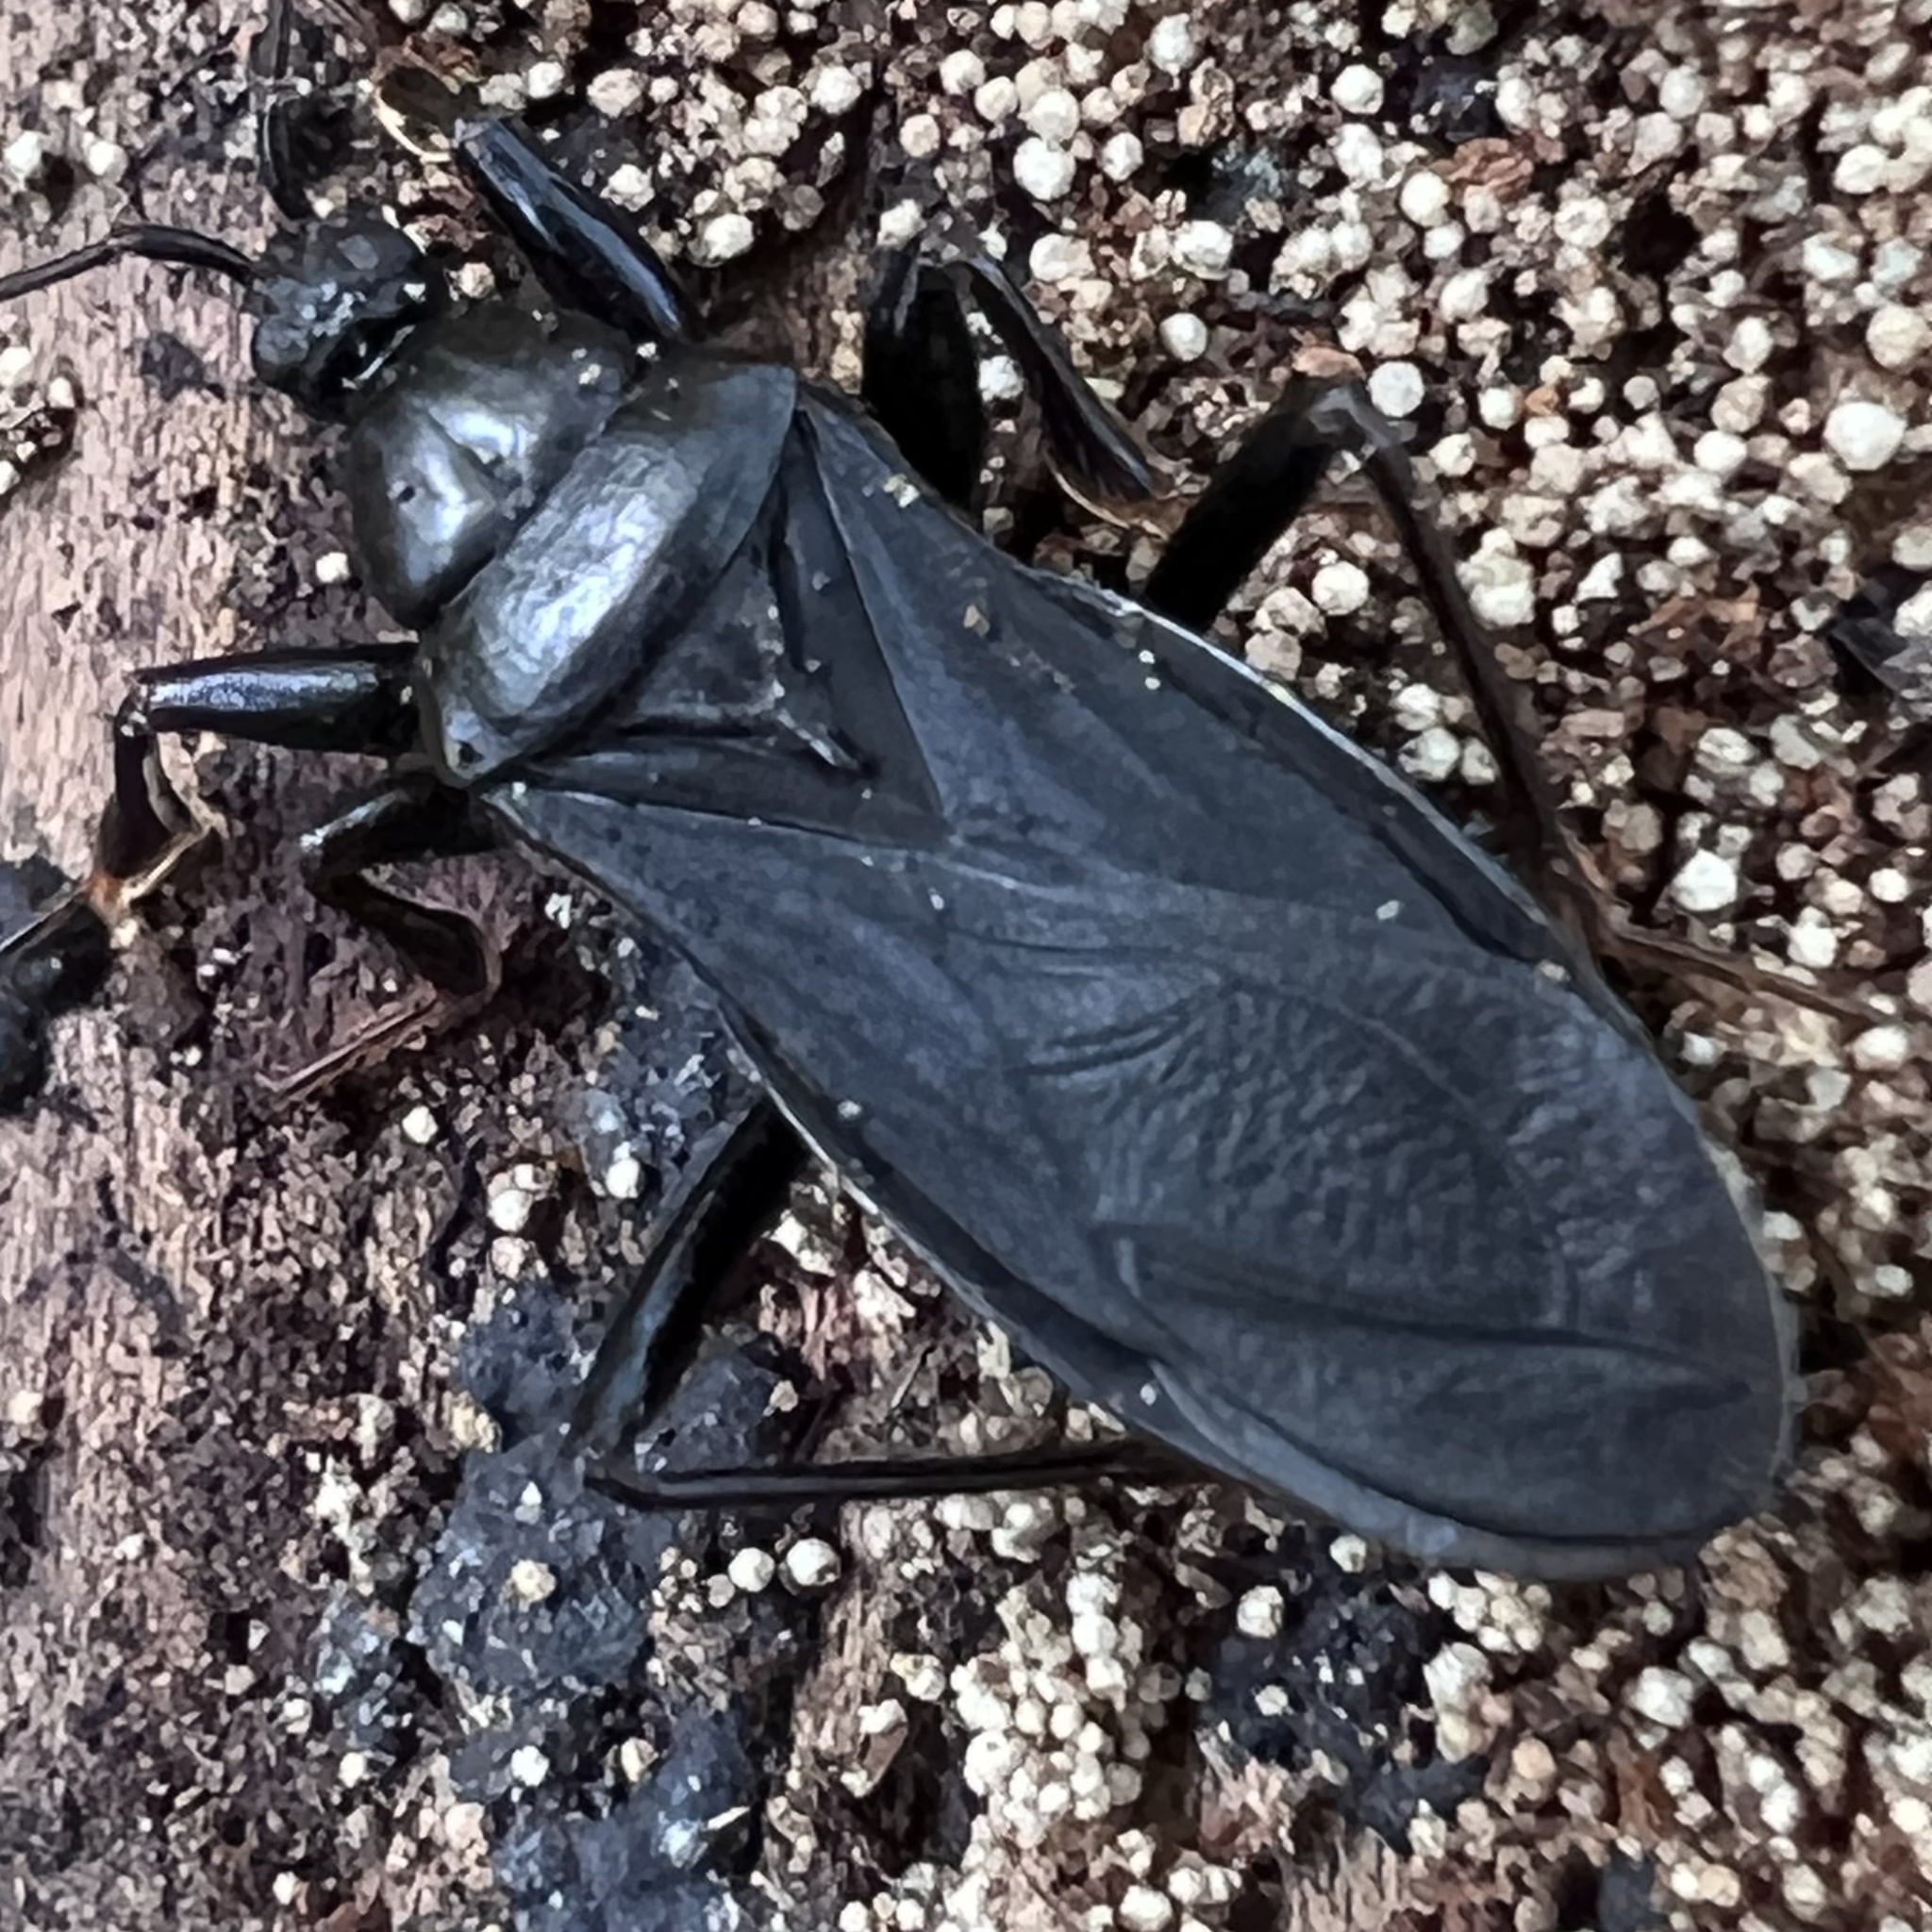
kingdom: Animalia
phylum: Arthropoda
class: Insecta
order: Hemiptera
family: Reduviidae
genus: Melanolestes
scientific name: Melanolestes picipes
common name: Assassin bug
